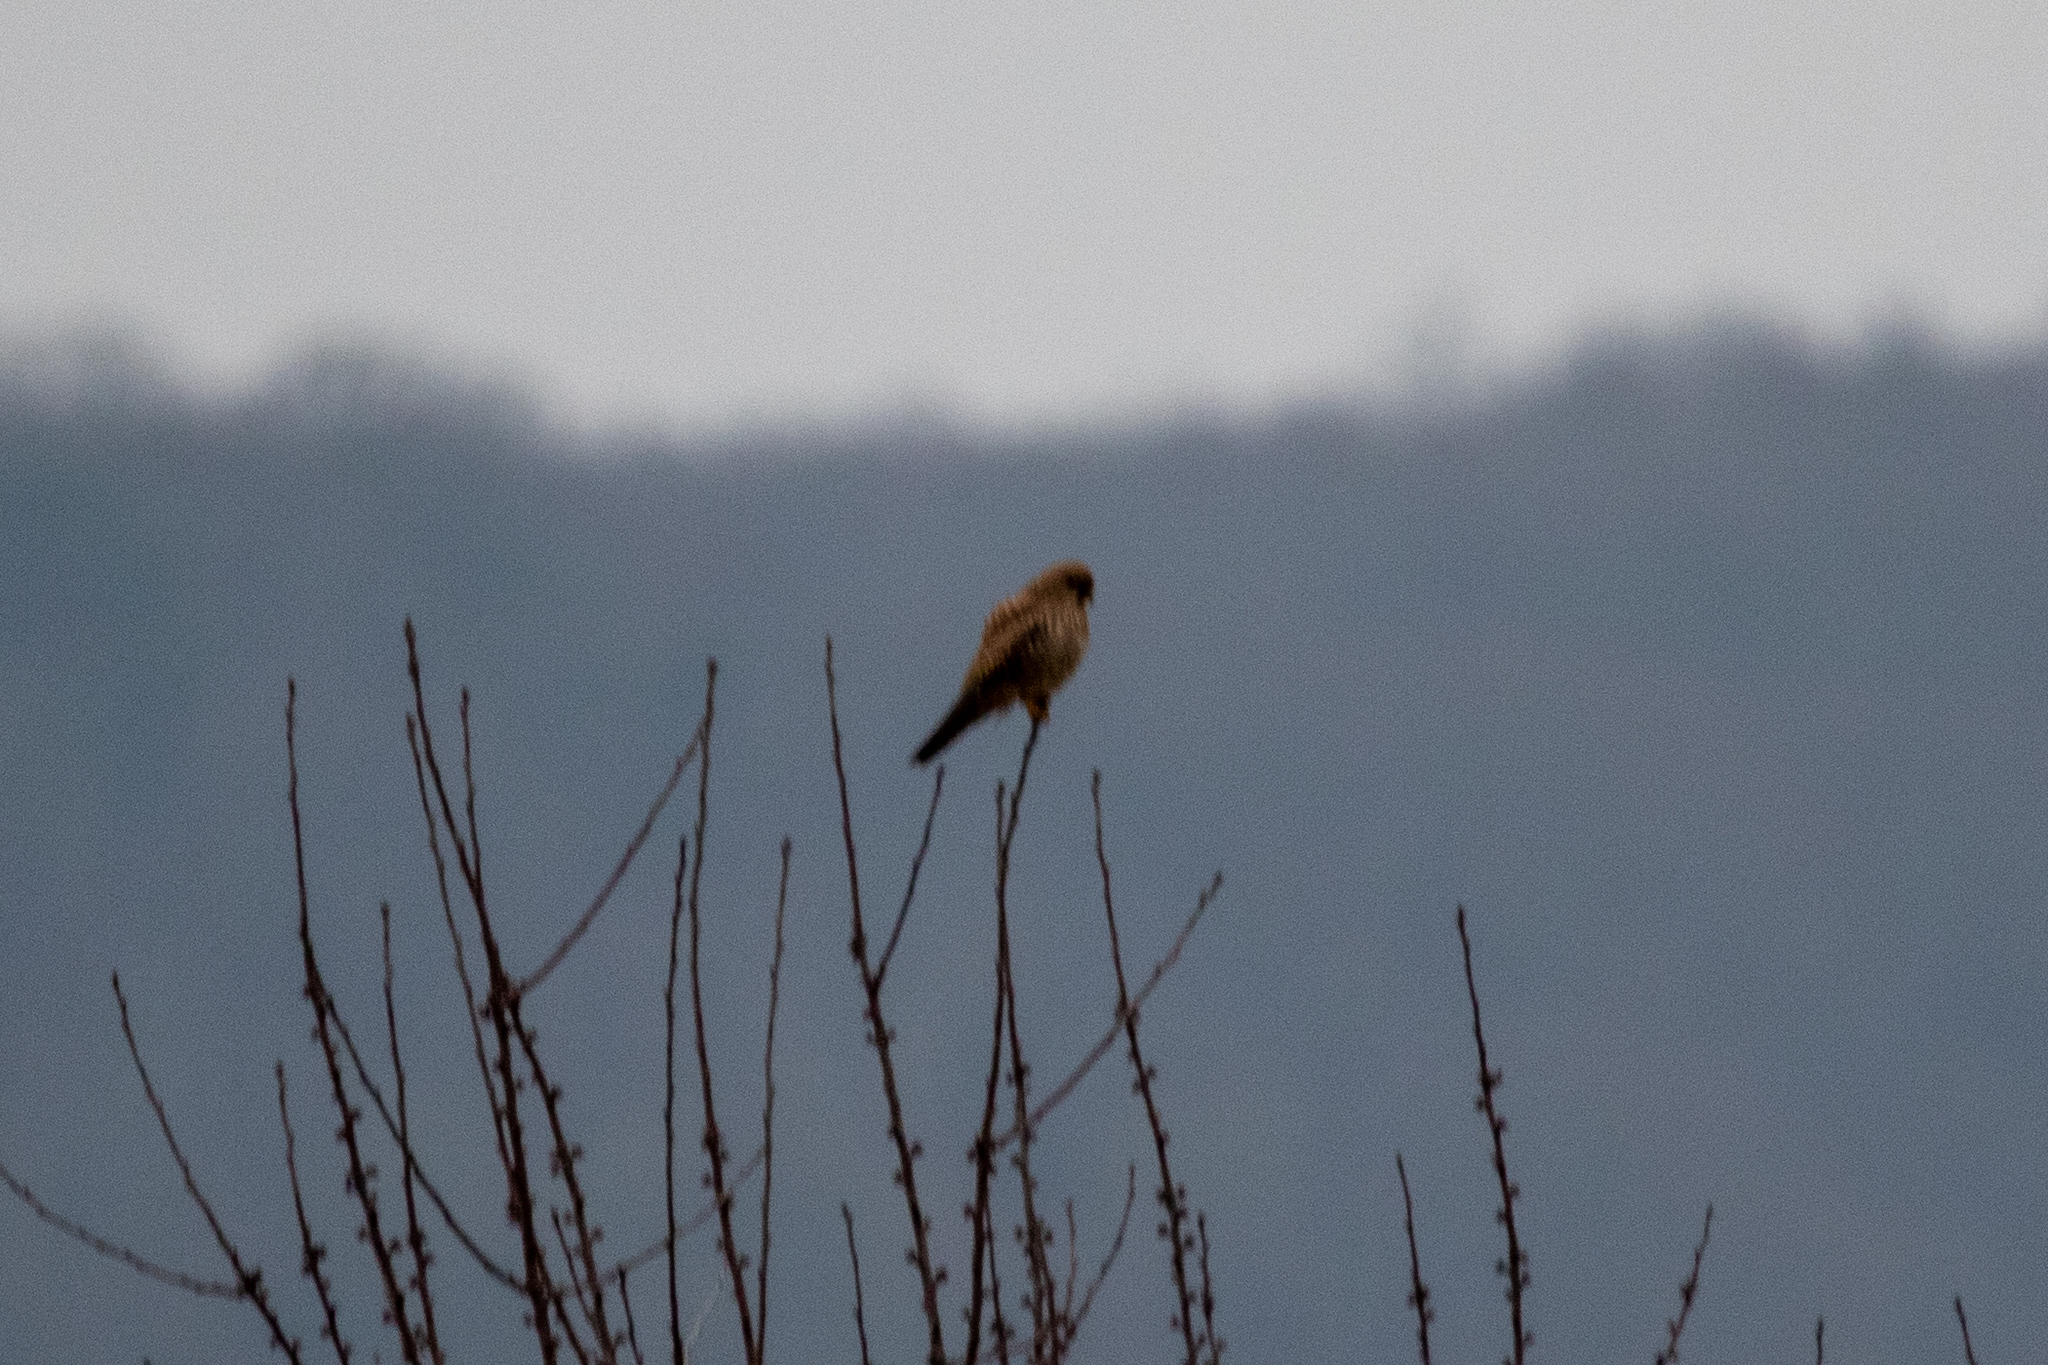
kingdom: Animalia
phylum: Chordata
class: Aves
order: Falconiformes
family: Falconidae
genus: Falco
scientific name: Falco tinnunculus
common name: Common kestrel
